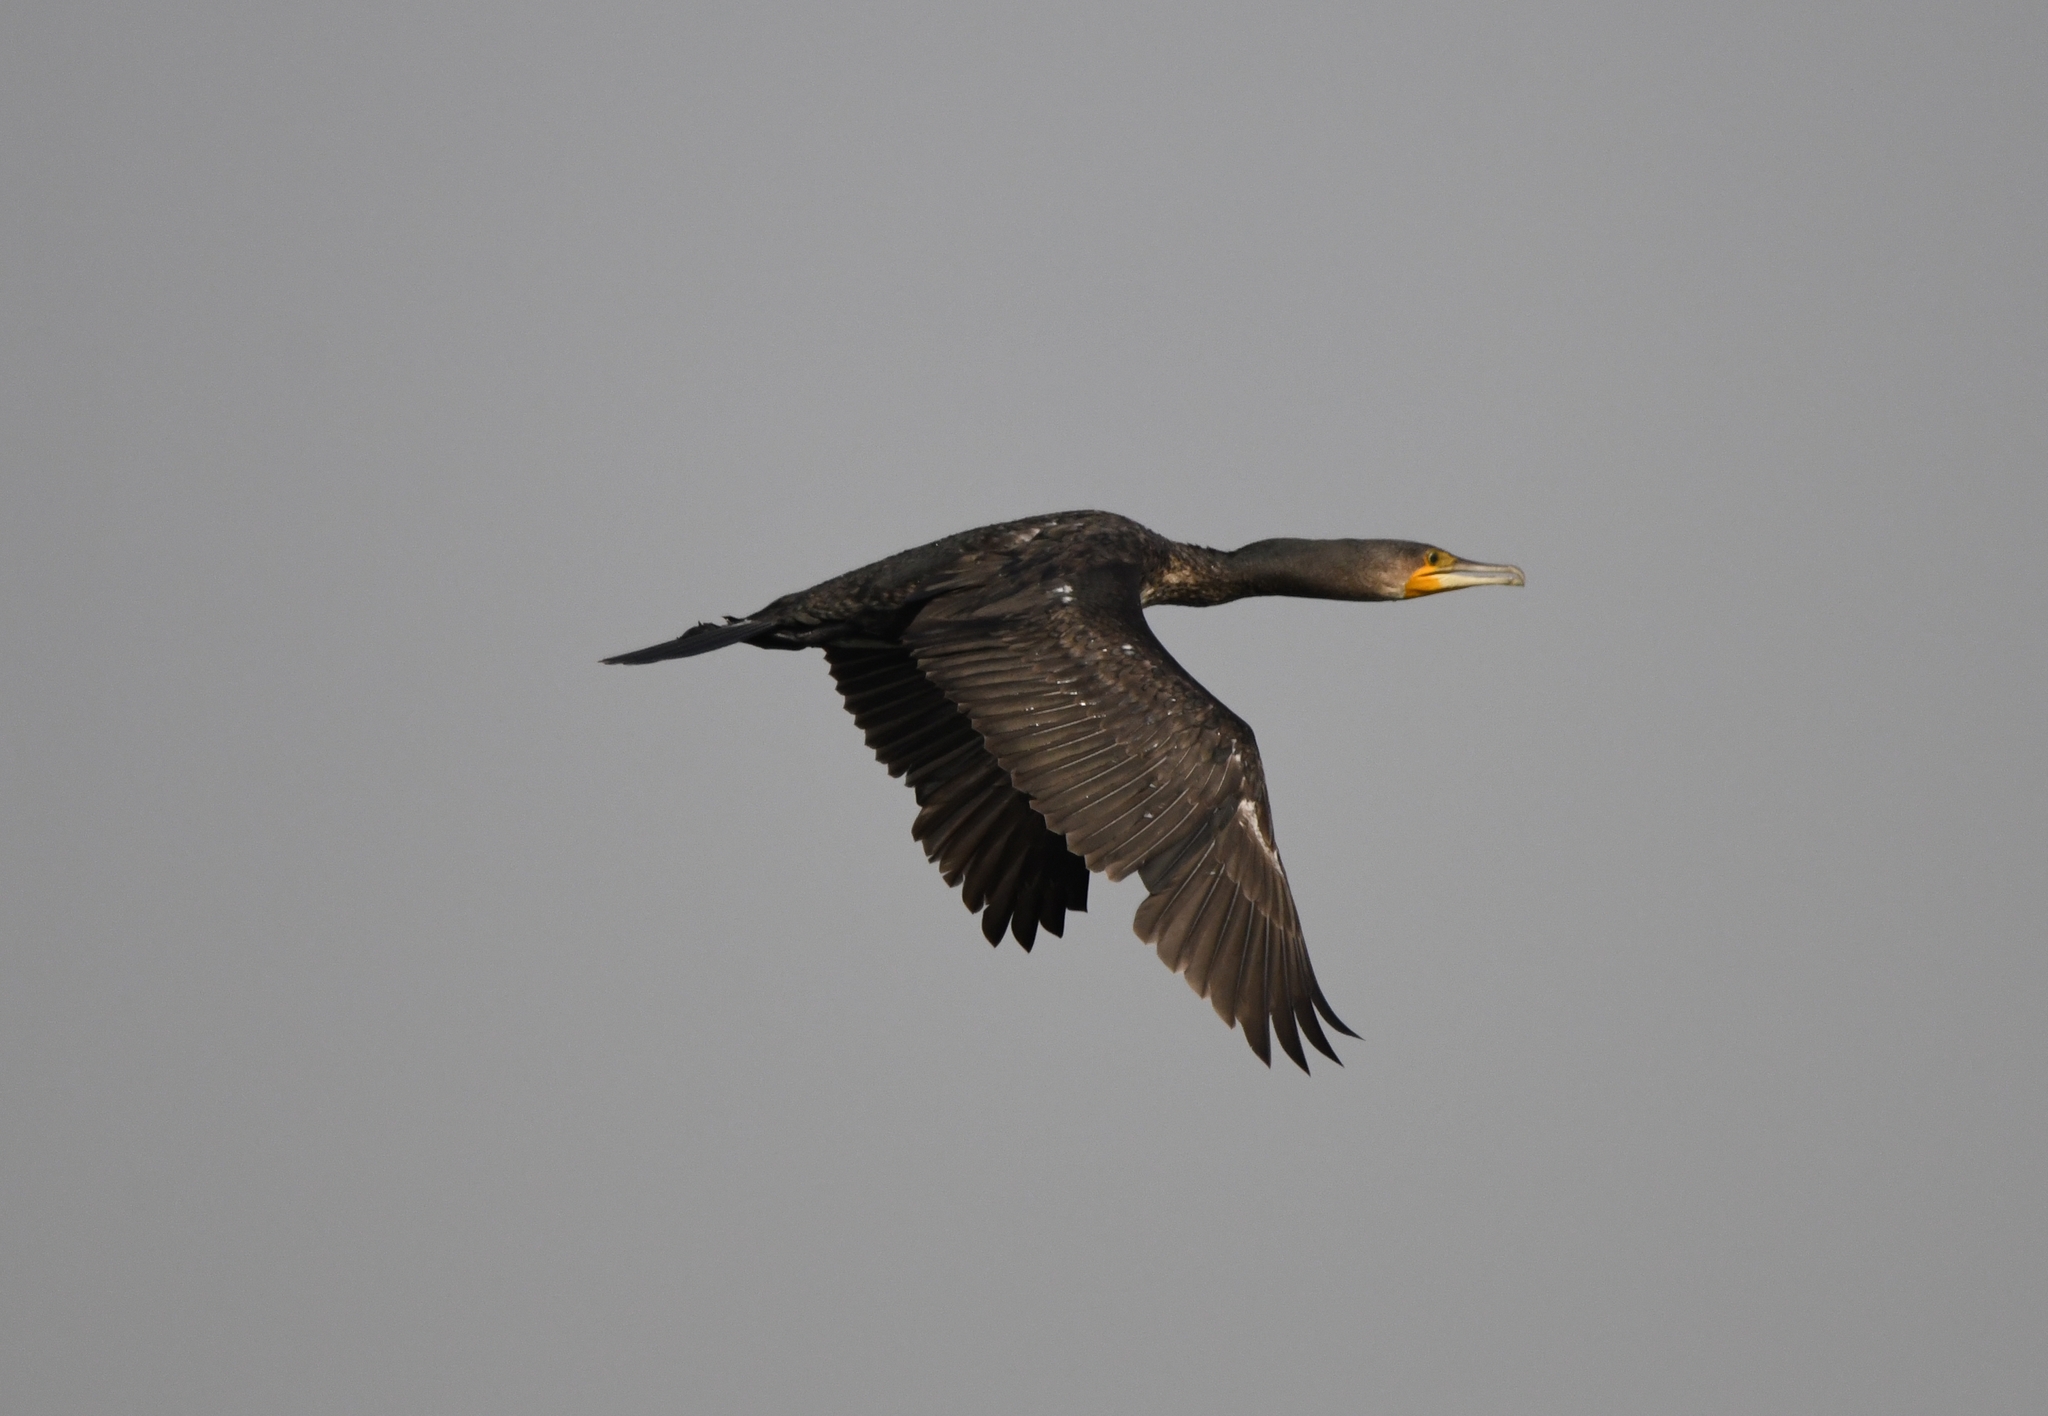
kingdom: Animalia
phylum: Chordata
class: Aves
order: Suliformes
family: Phalacrocoracidae
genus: Phalacrocorax
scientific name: Phalacrocorax carbo
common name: Great cormorant
